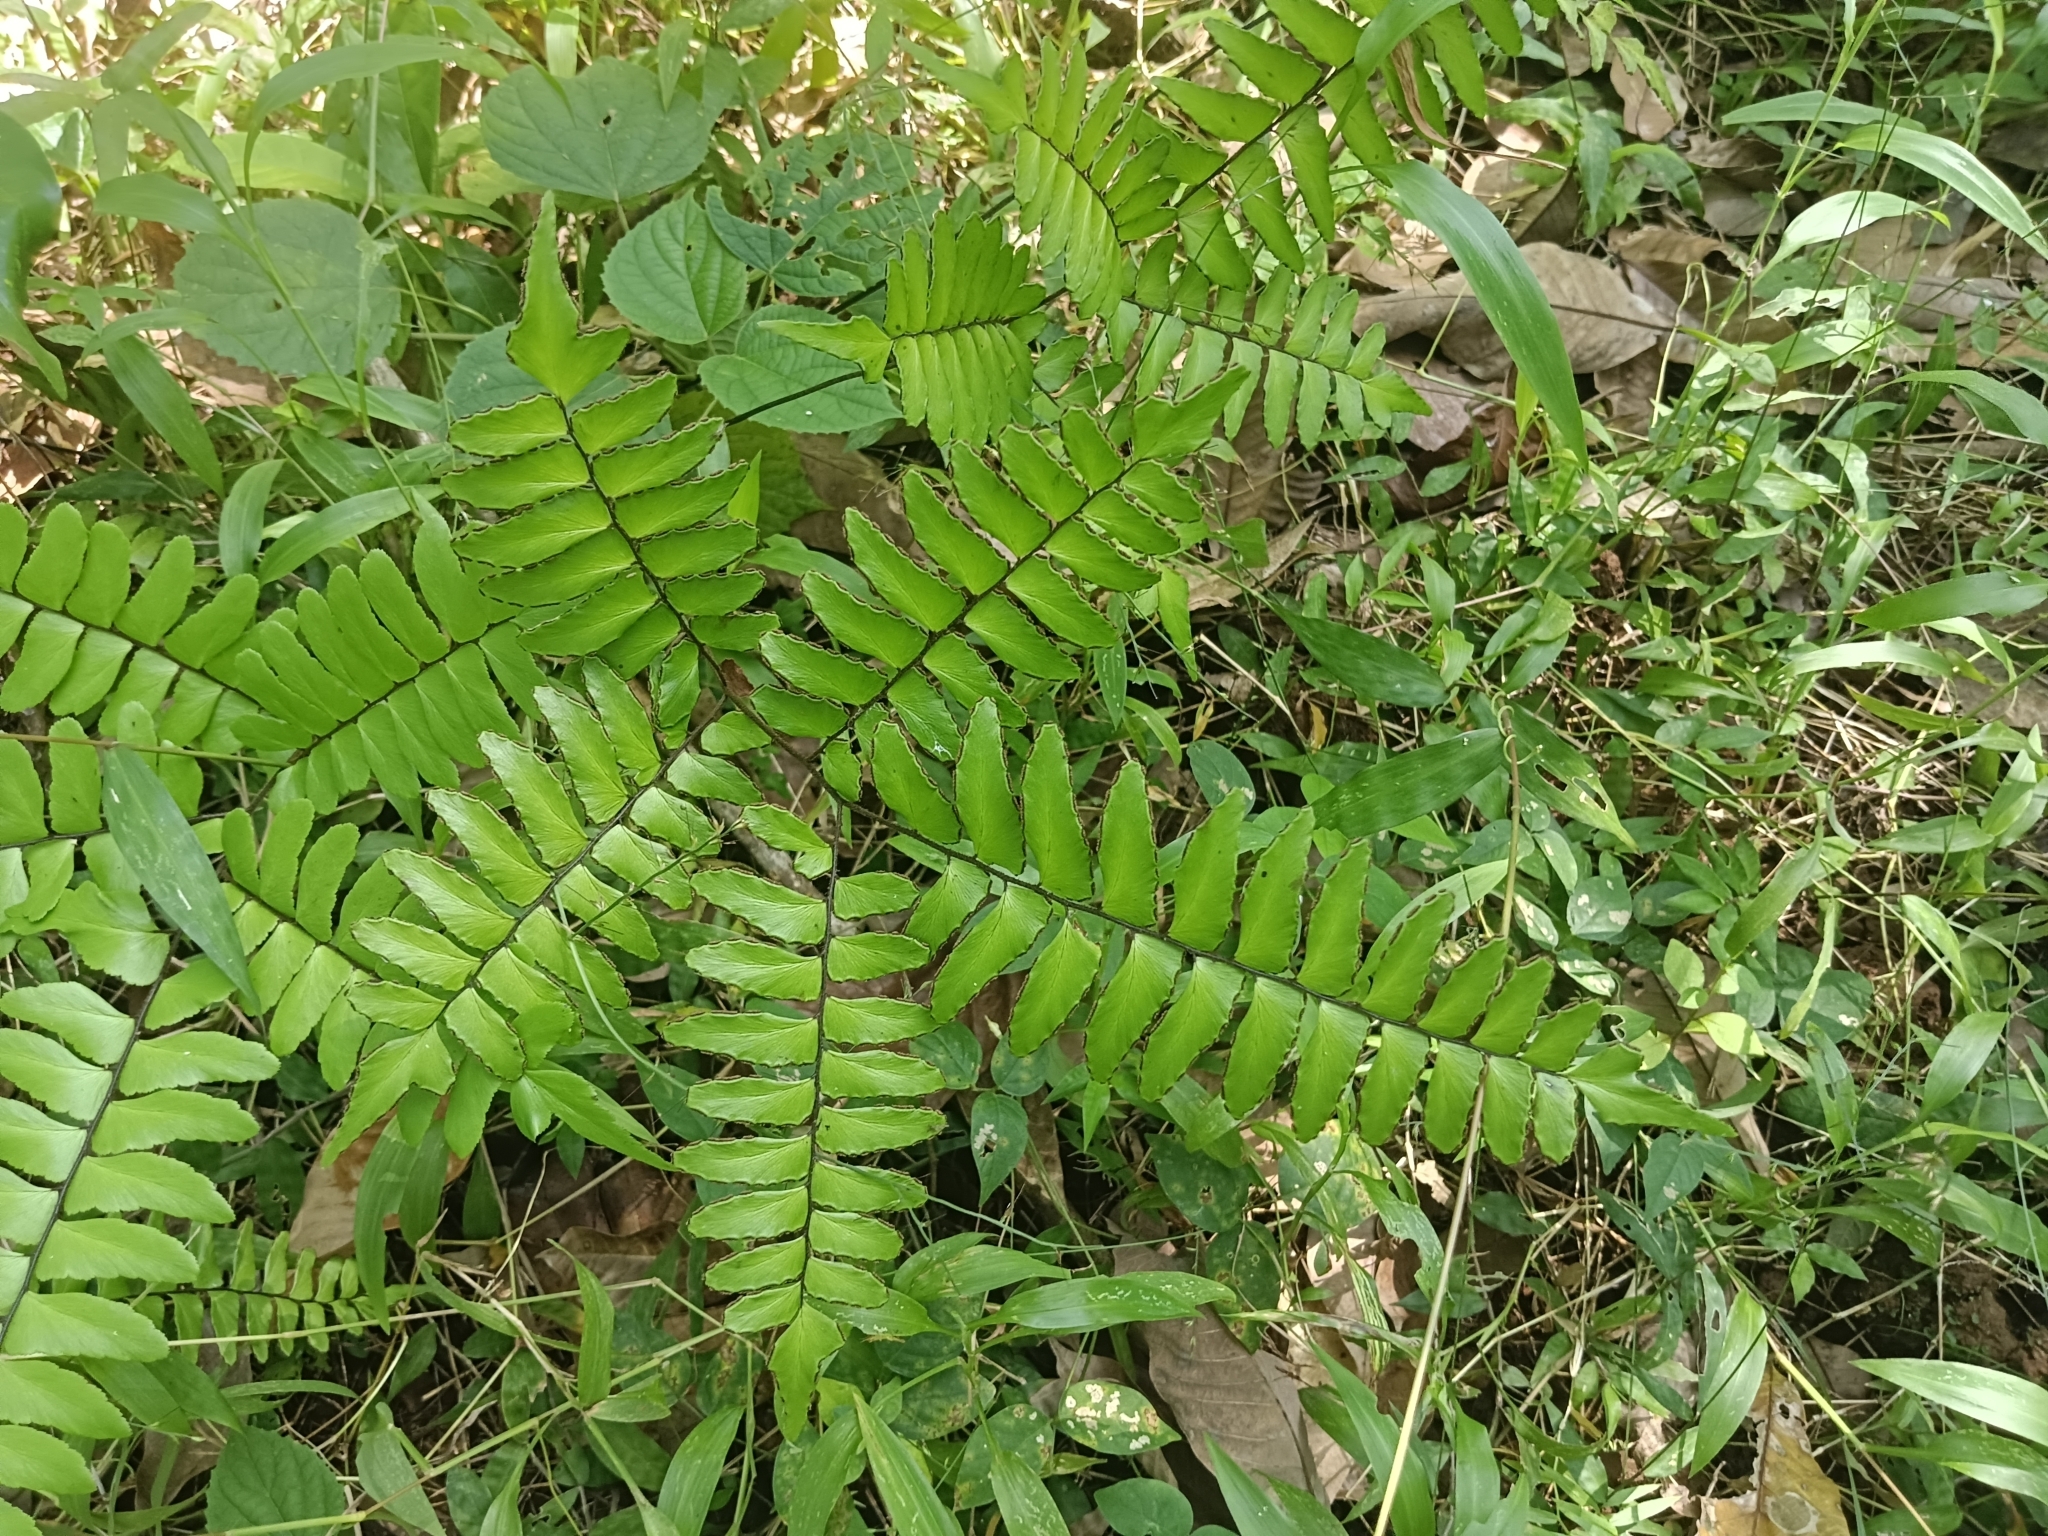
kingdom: Plantae
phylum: Tracheophyta
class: Polypodiopsida
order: Polypodiales
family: Pteridaceae
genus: Adiantum
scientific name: Adiantum latifolium
